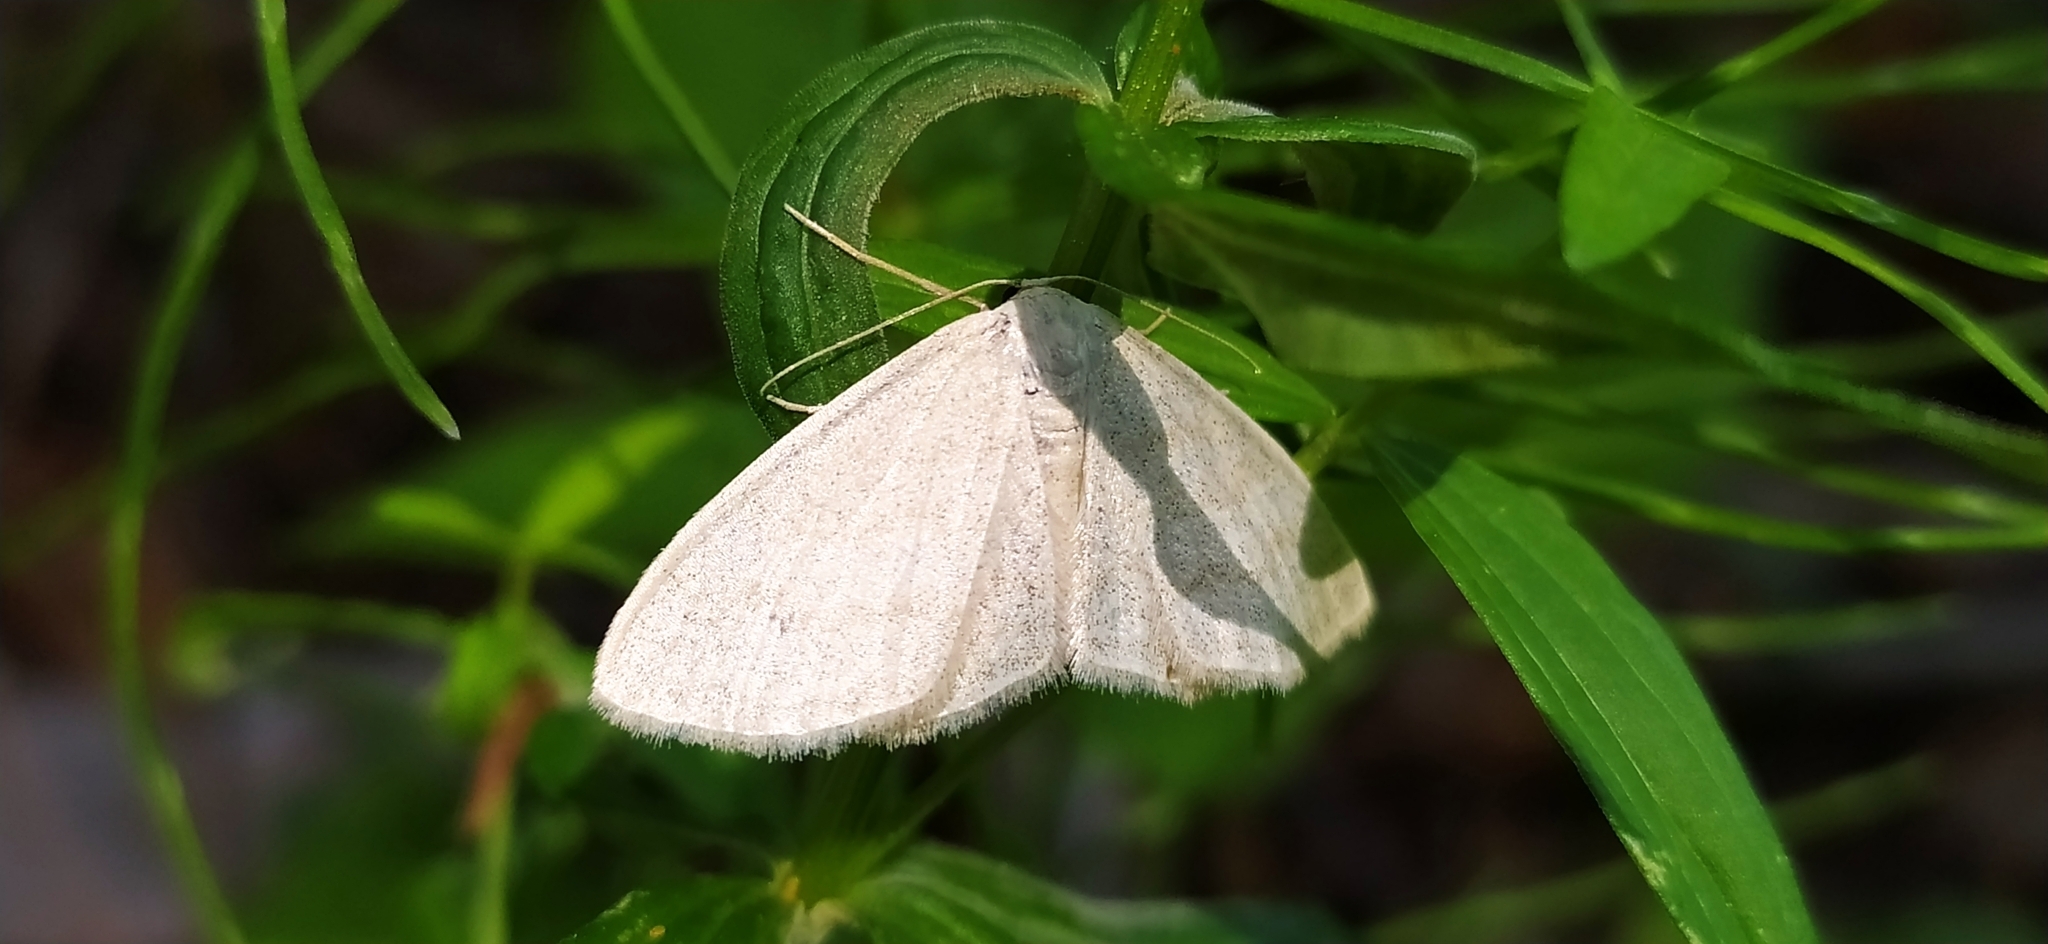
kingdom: Animalia
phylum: Arthropoda
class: Insecta
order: Lepidoptera
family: Geometridae
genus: Scopula
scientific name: Scopula ternata
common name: Smoky wave
